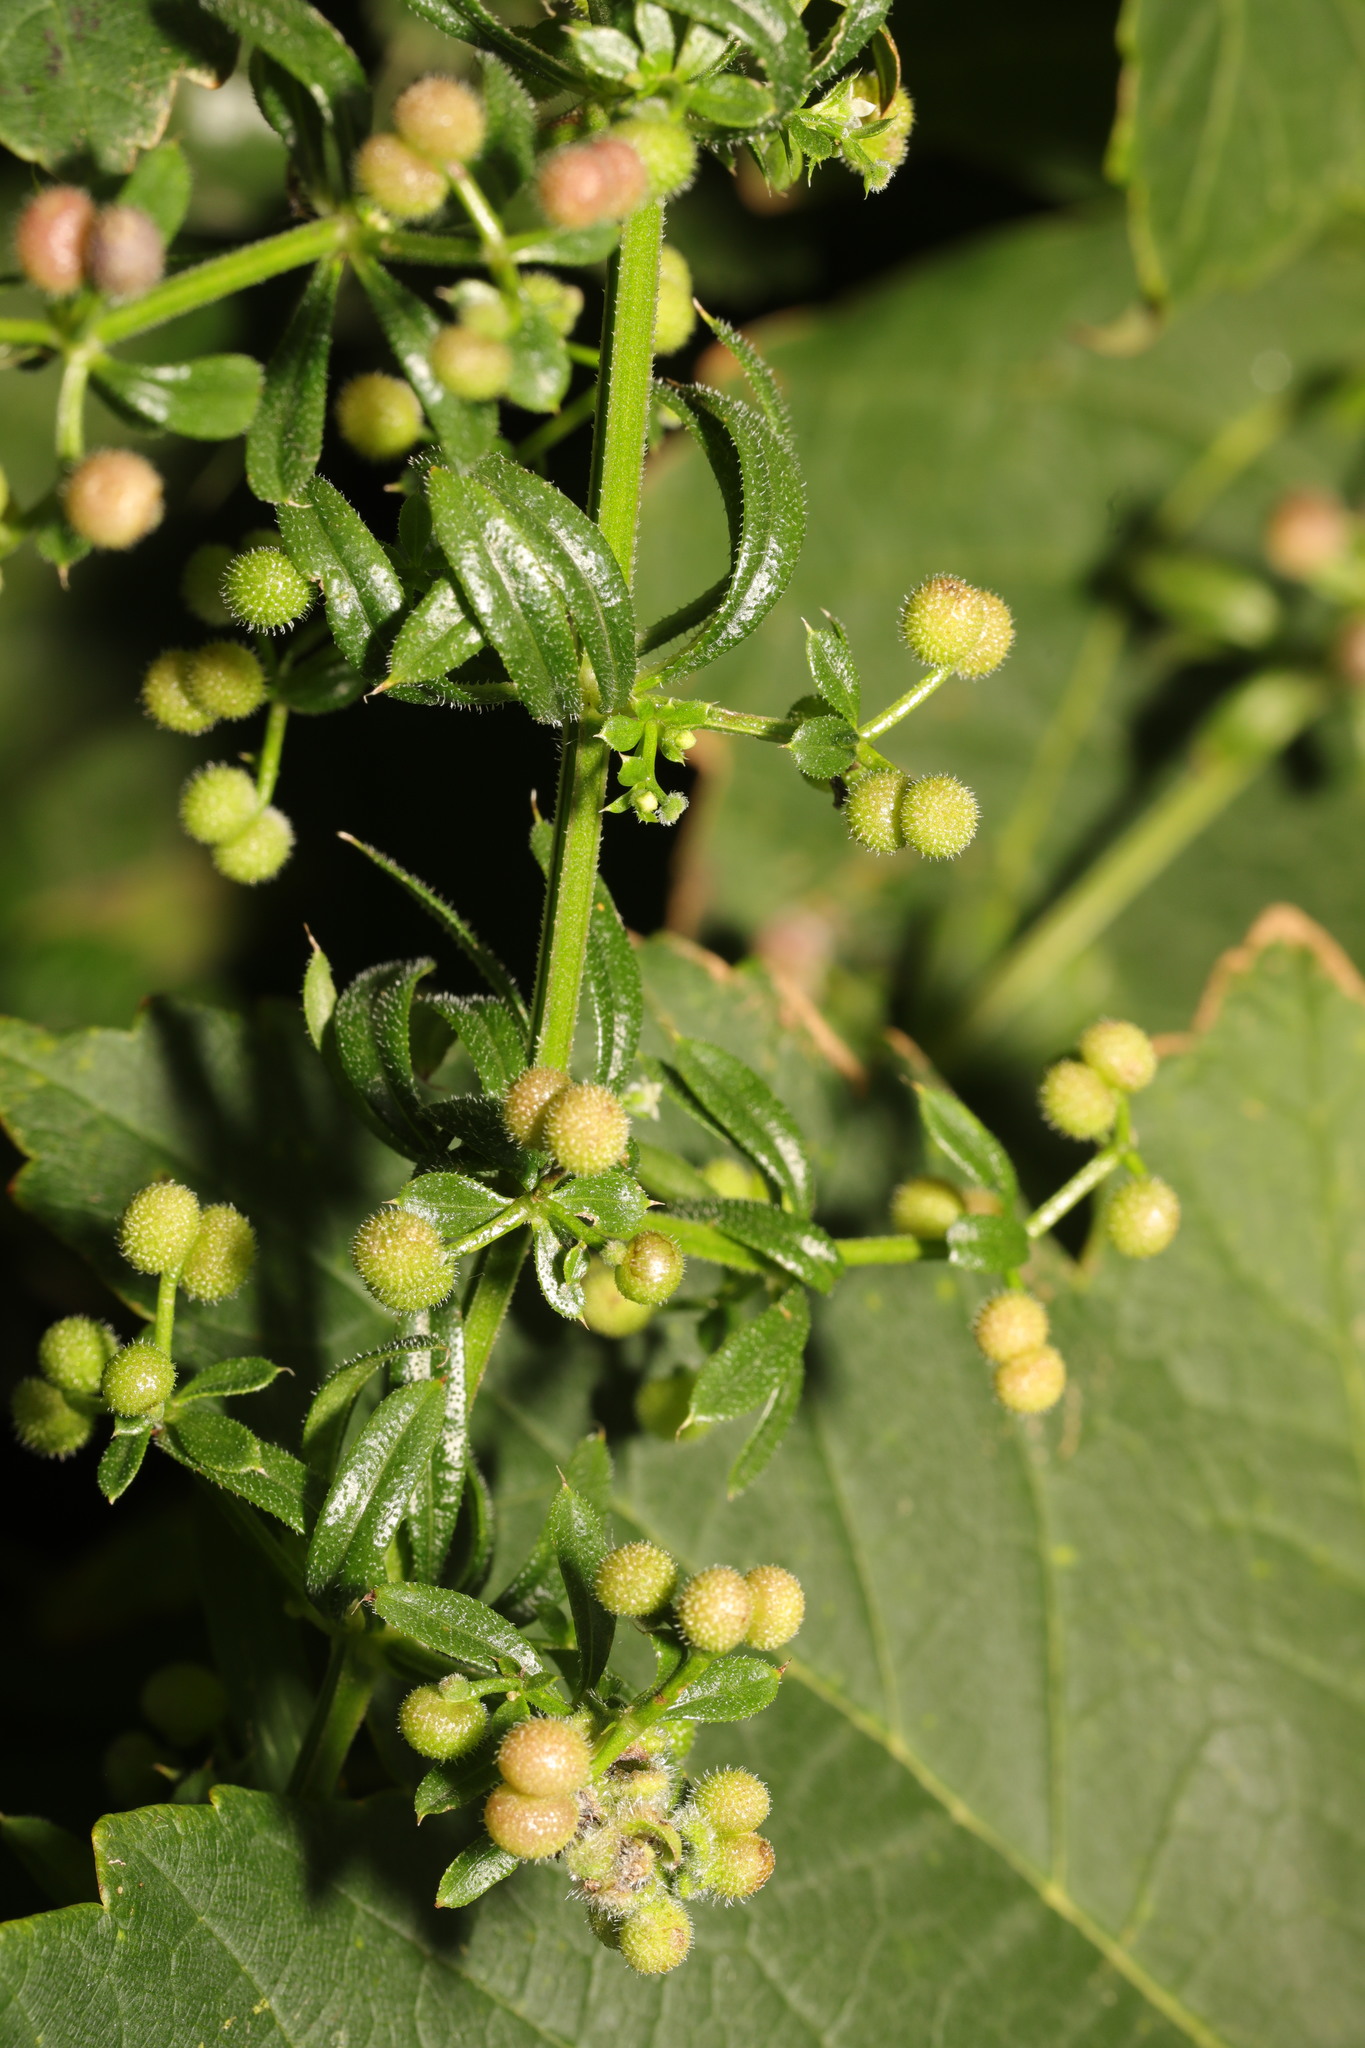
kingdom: Plantae
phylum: Tracheophyta
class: Magnoliopsida
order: Gentianales
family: Rubiaceae
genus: Galium
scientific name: Galium aparine
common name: Cleavers
